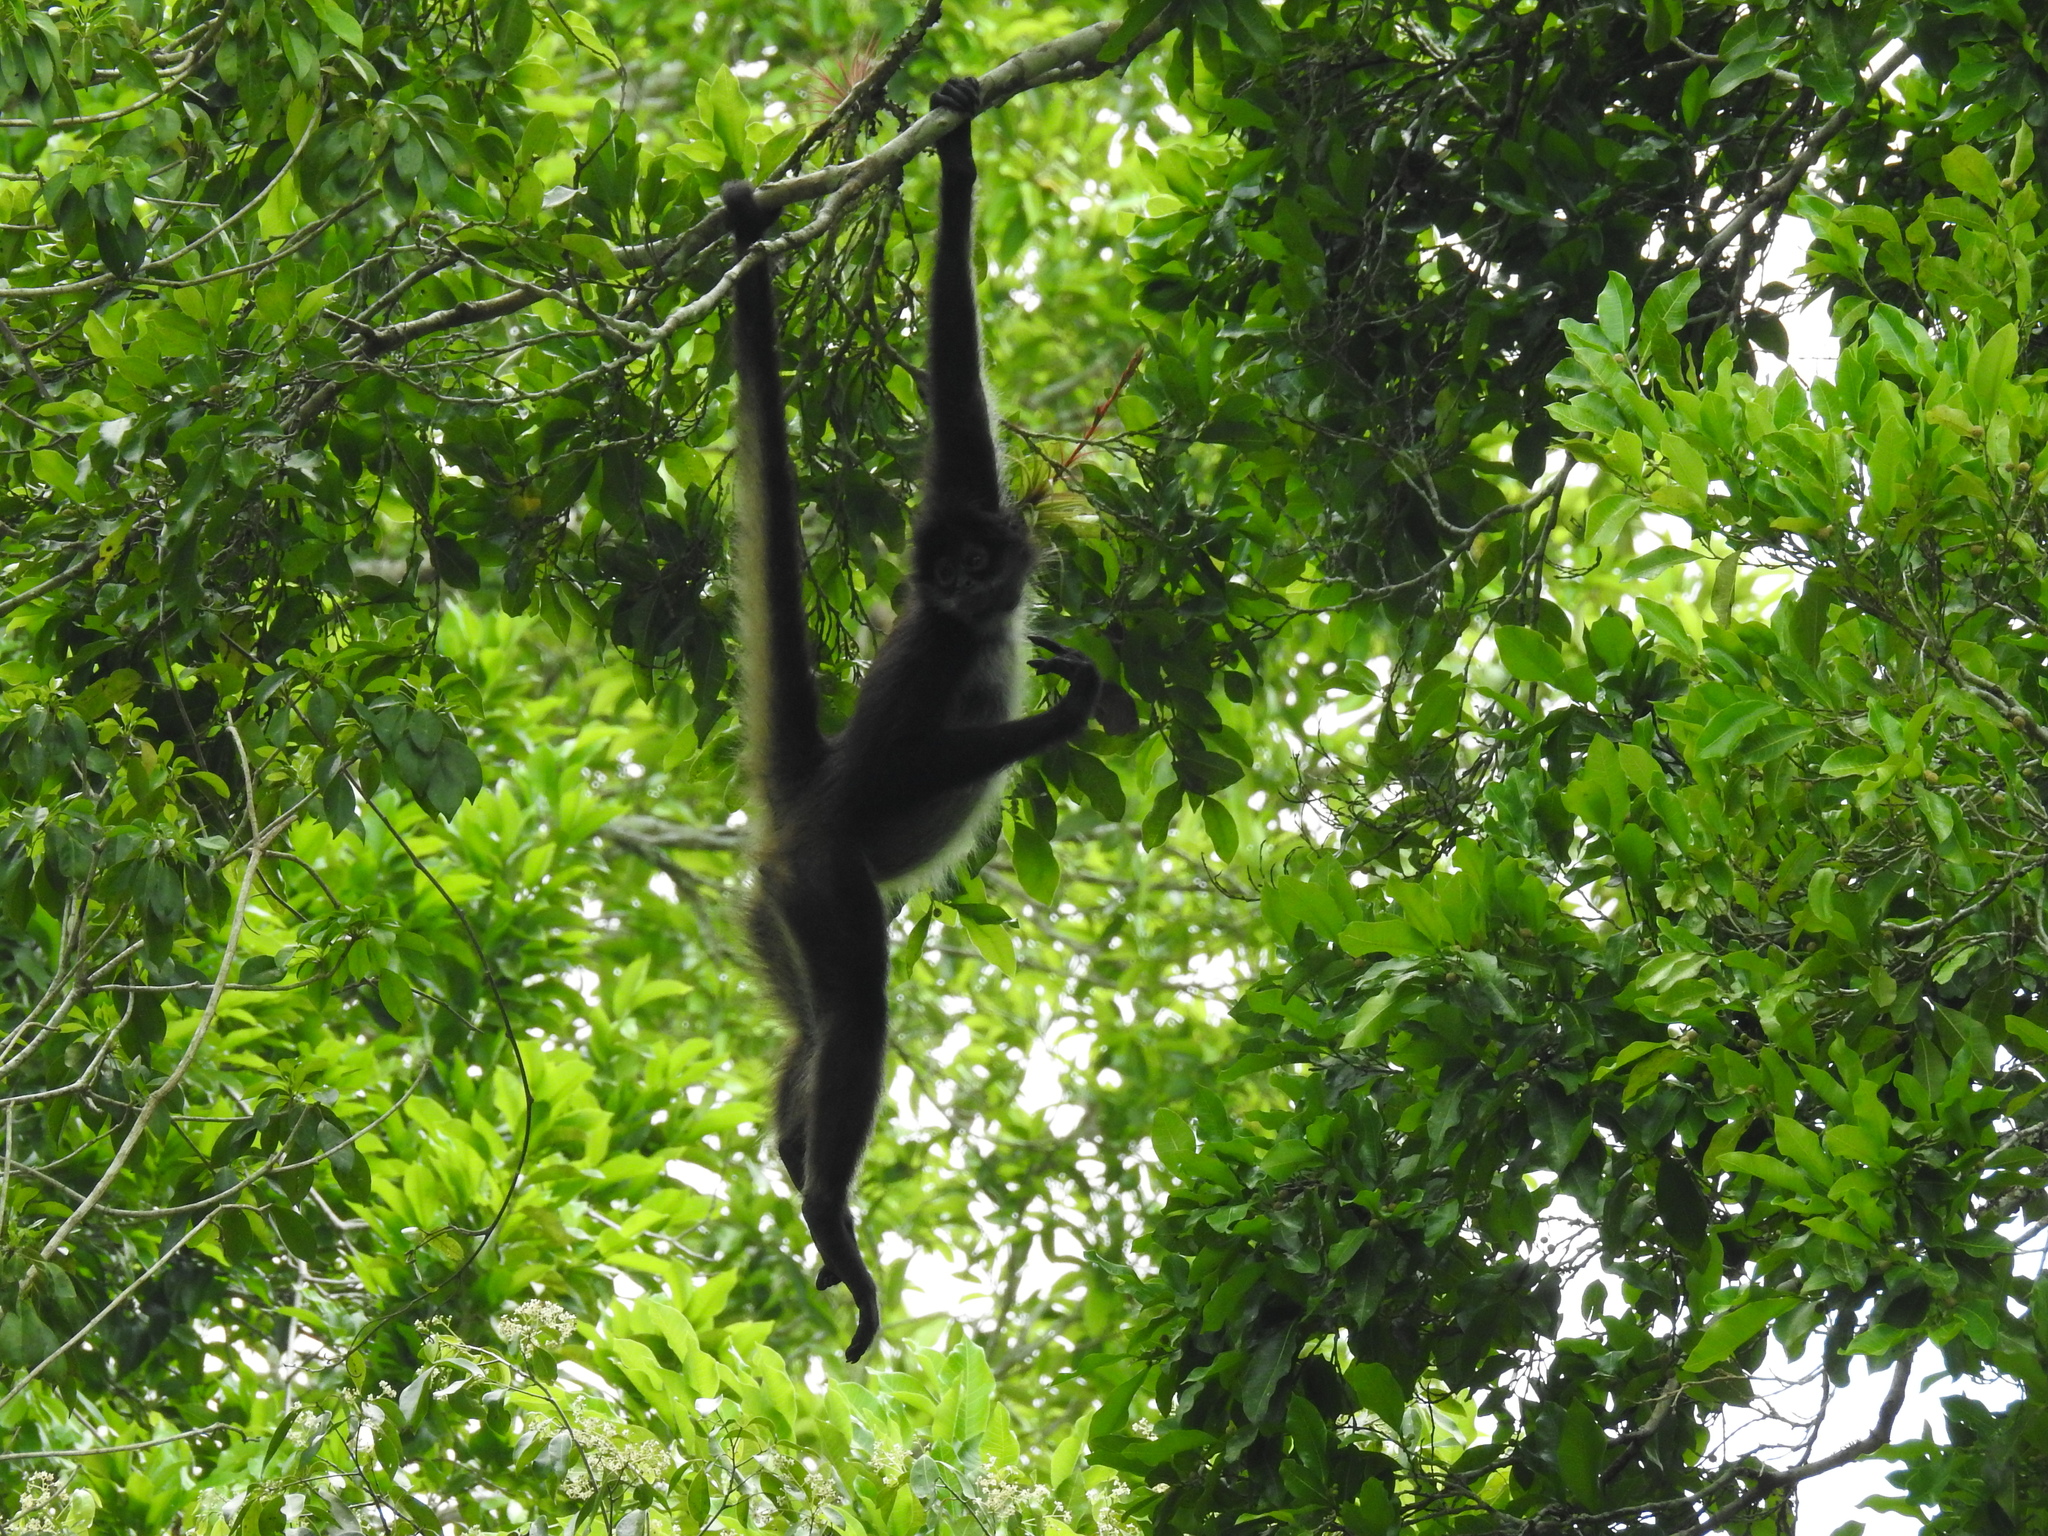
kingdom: Animalia
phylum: Chordata
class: Mammalia
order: Primates
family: Atelidae
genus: Ateles
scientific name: Ateles geoffroyi
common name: Black-handed spider monkey
